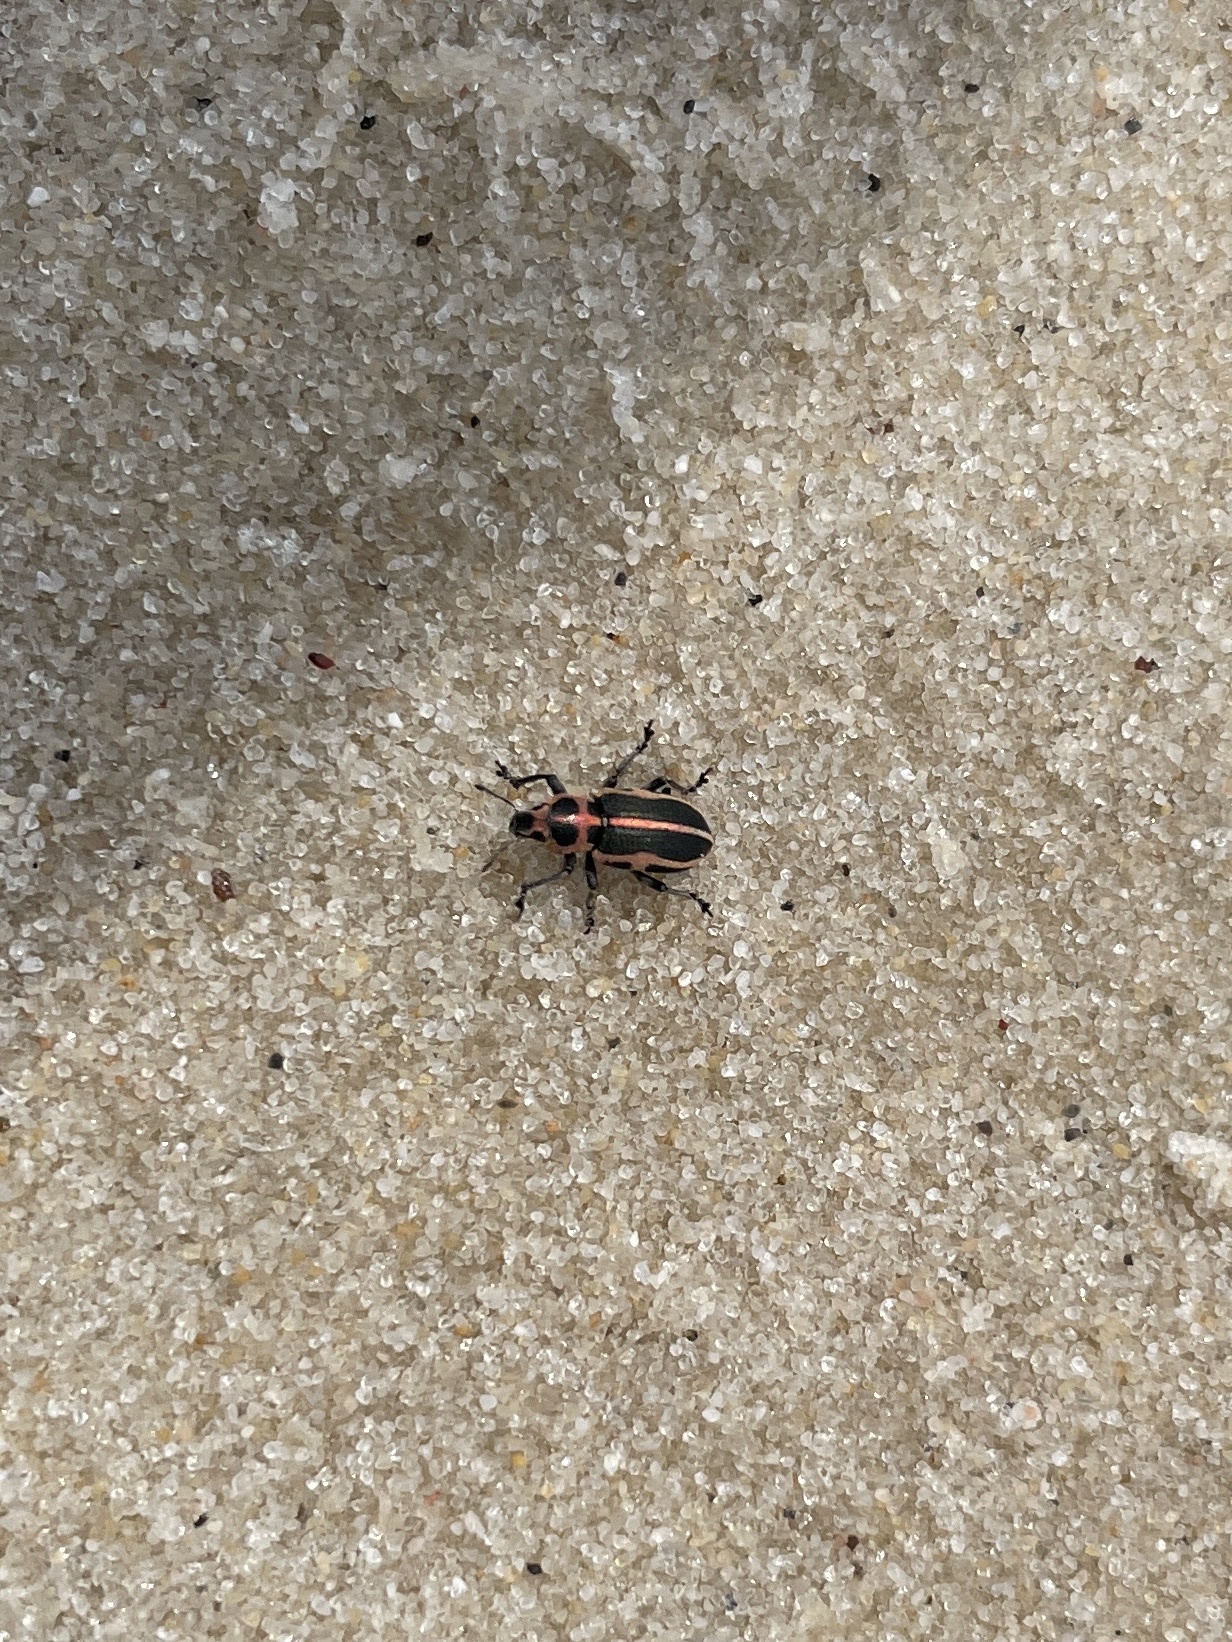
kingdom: Animalia
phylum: Arthropoda
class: Insecta
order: Coleoptera
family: Curculionidae
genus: Eudiagogus
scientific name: Eudiagogus pulcher
